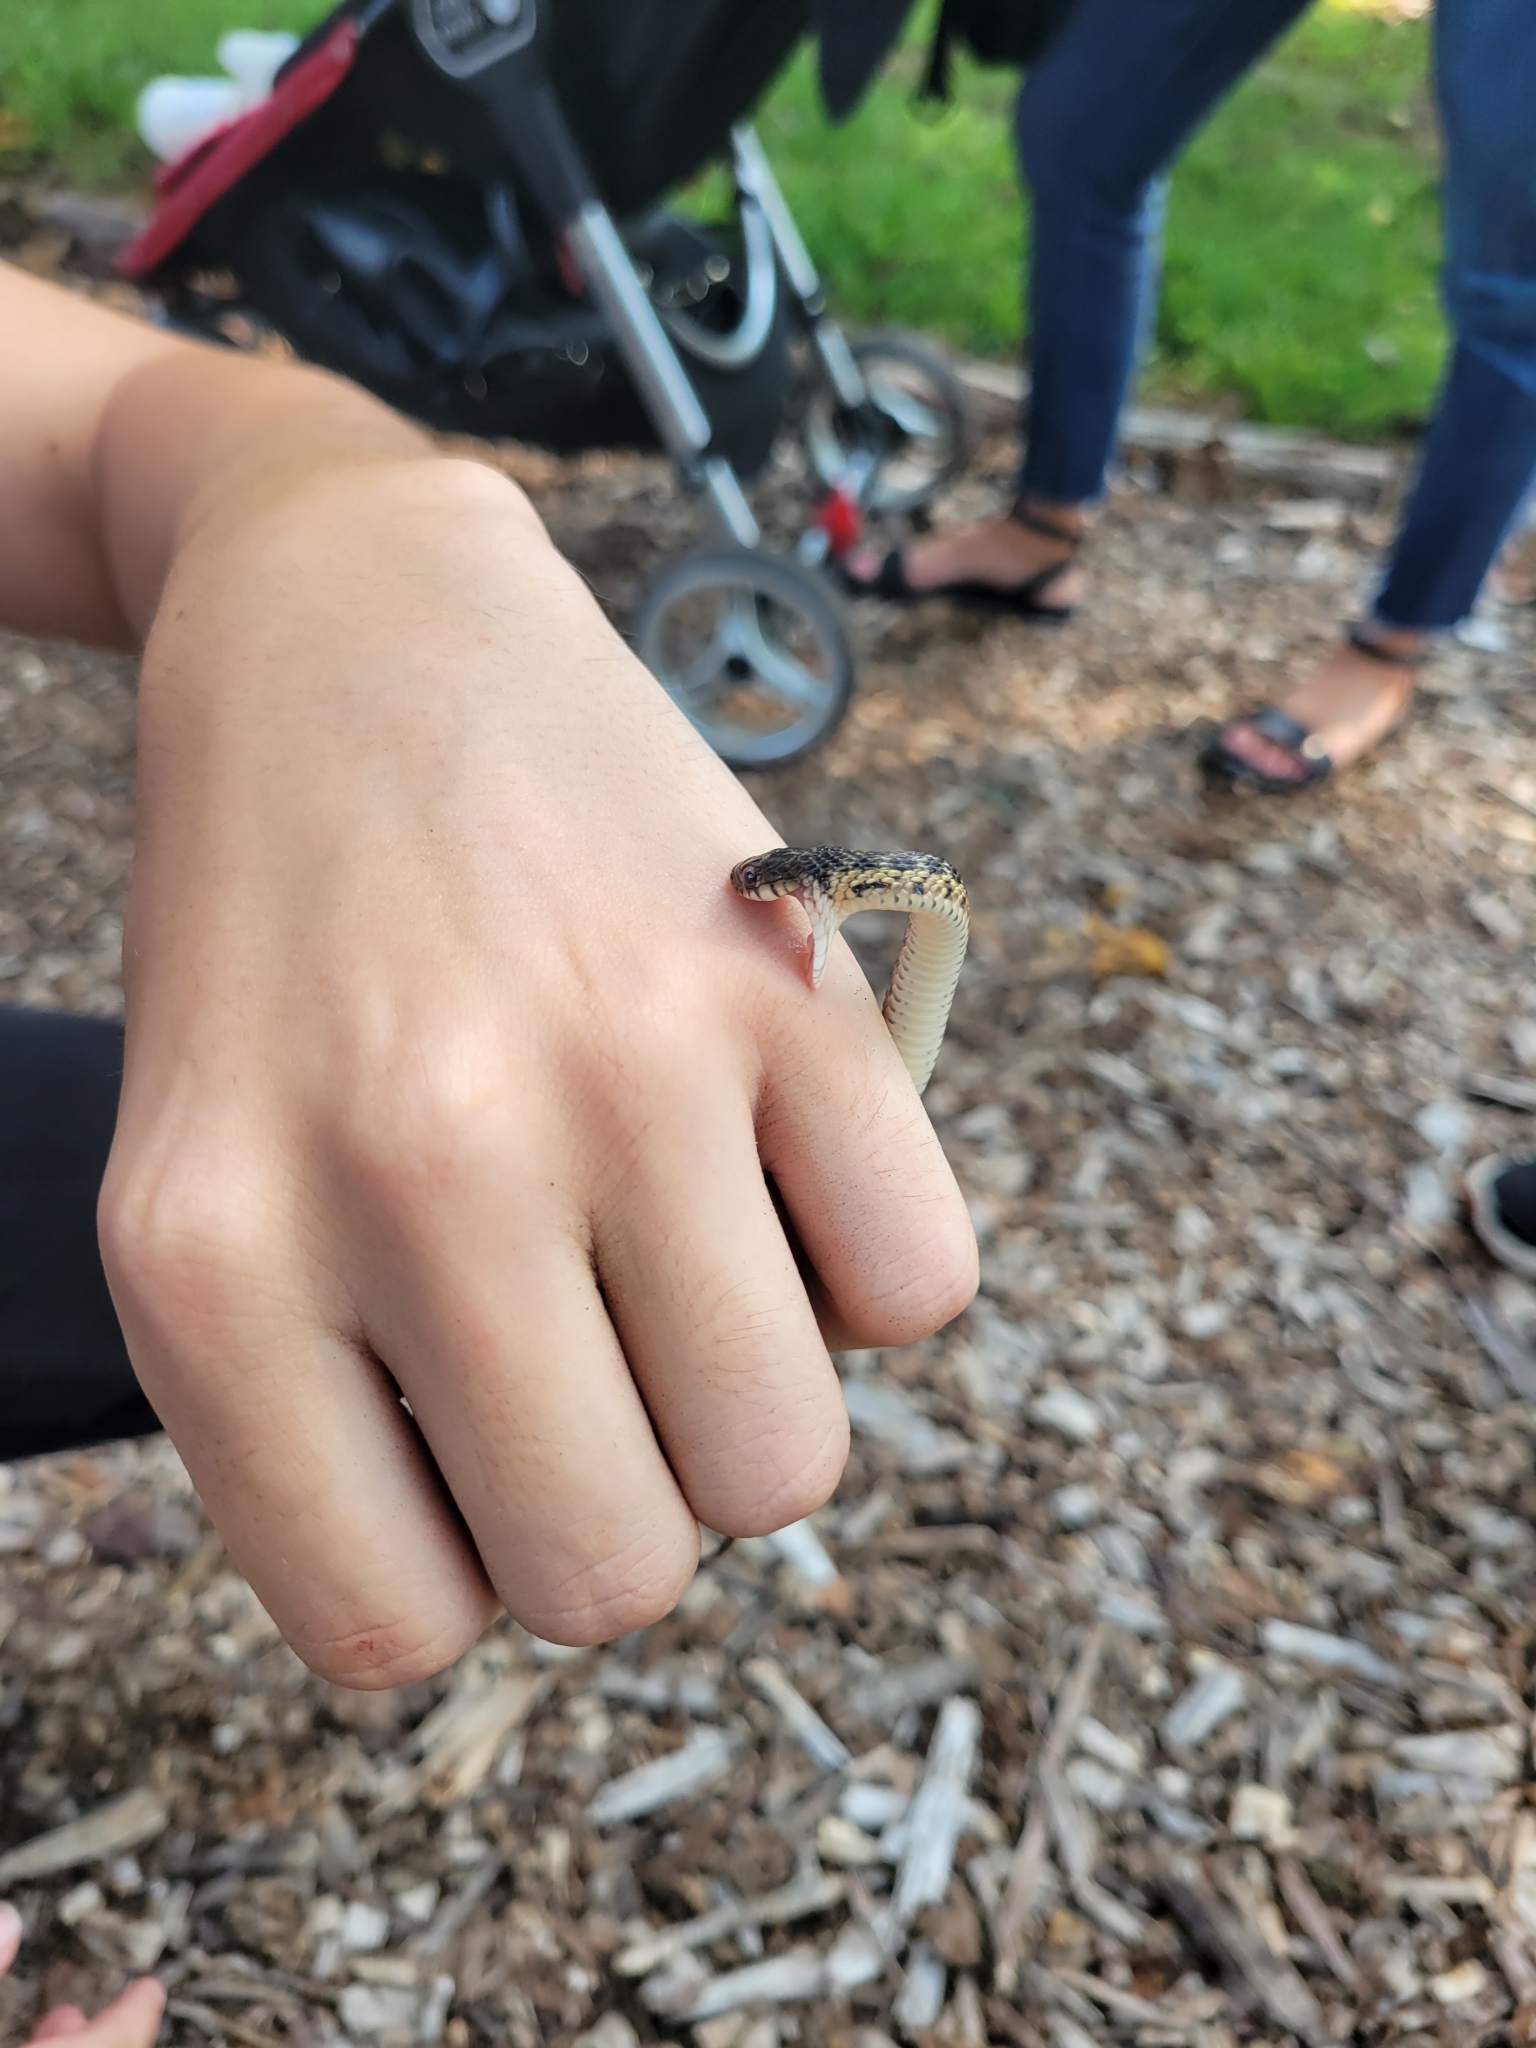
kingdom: Animalia
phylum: Chordata
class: Squamata
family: Colubridae
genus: Thamnophis
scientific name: Thamnophis sirtalis
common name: Common garter snake
